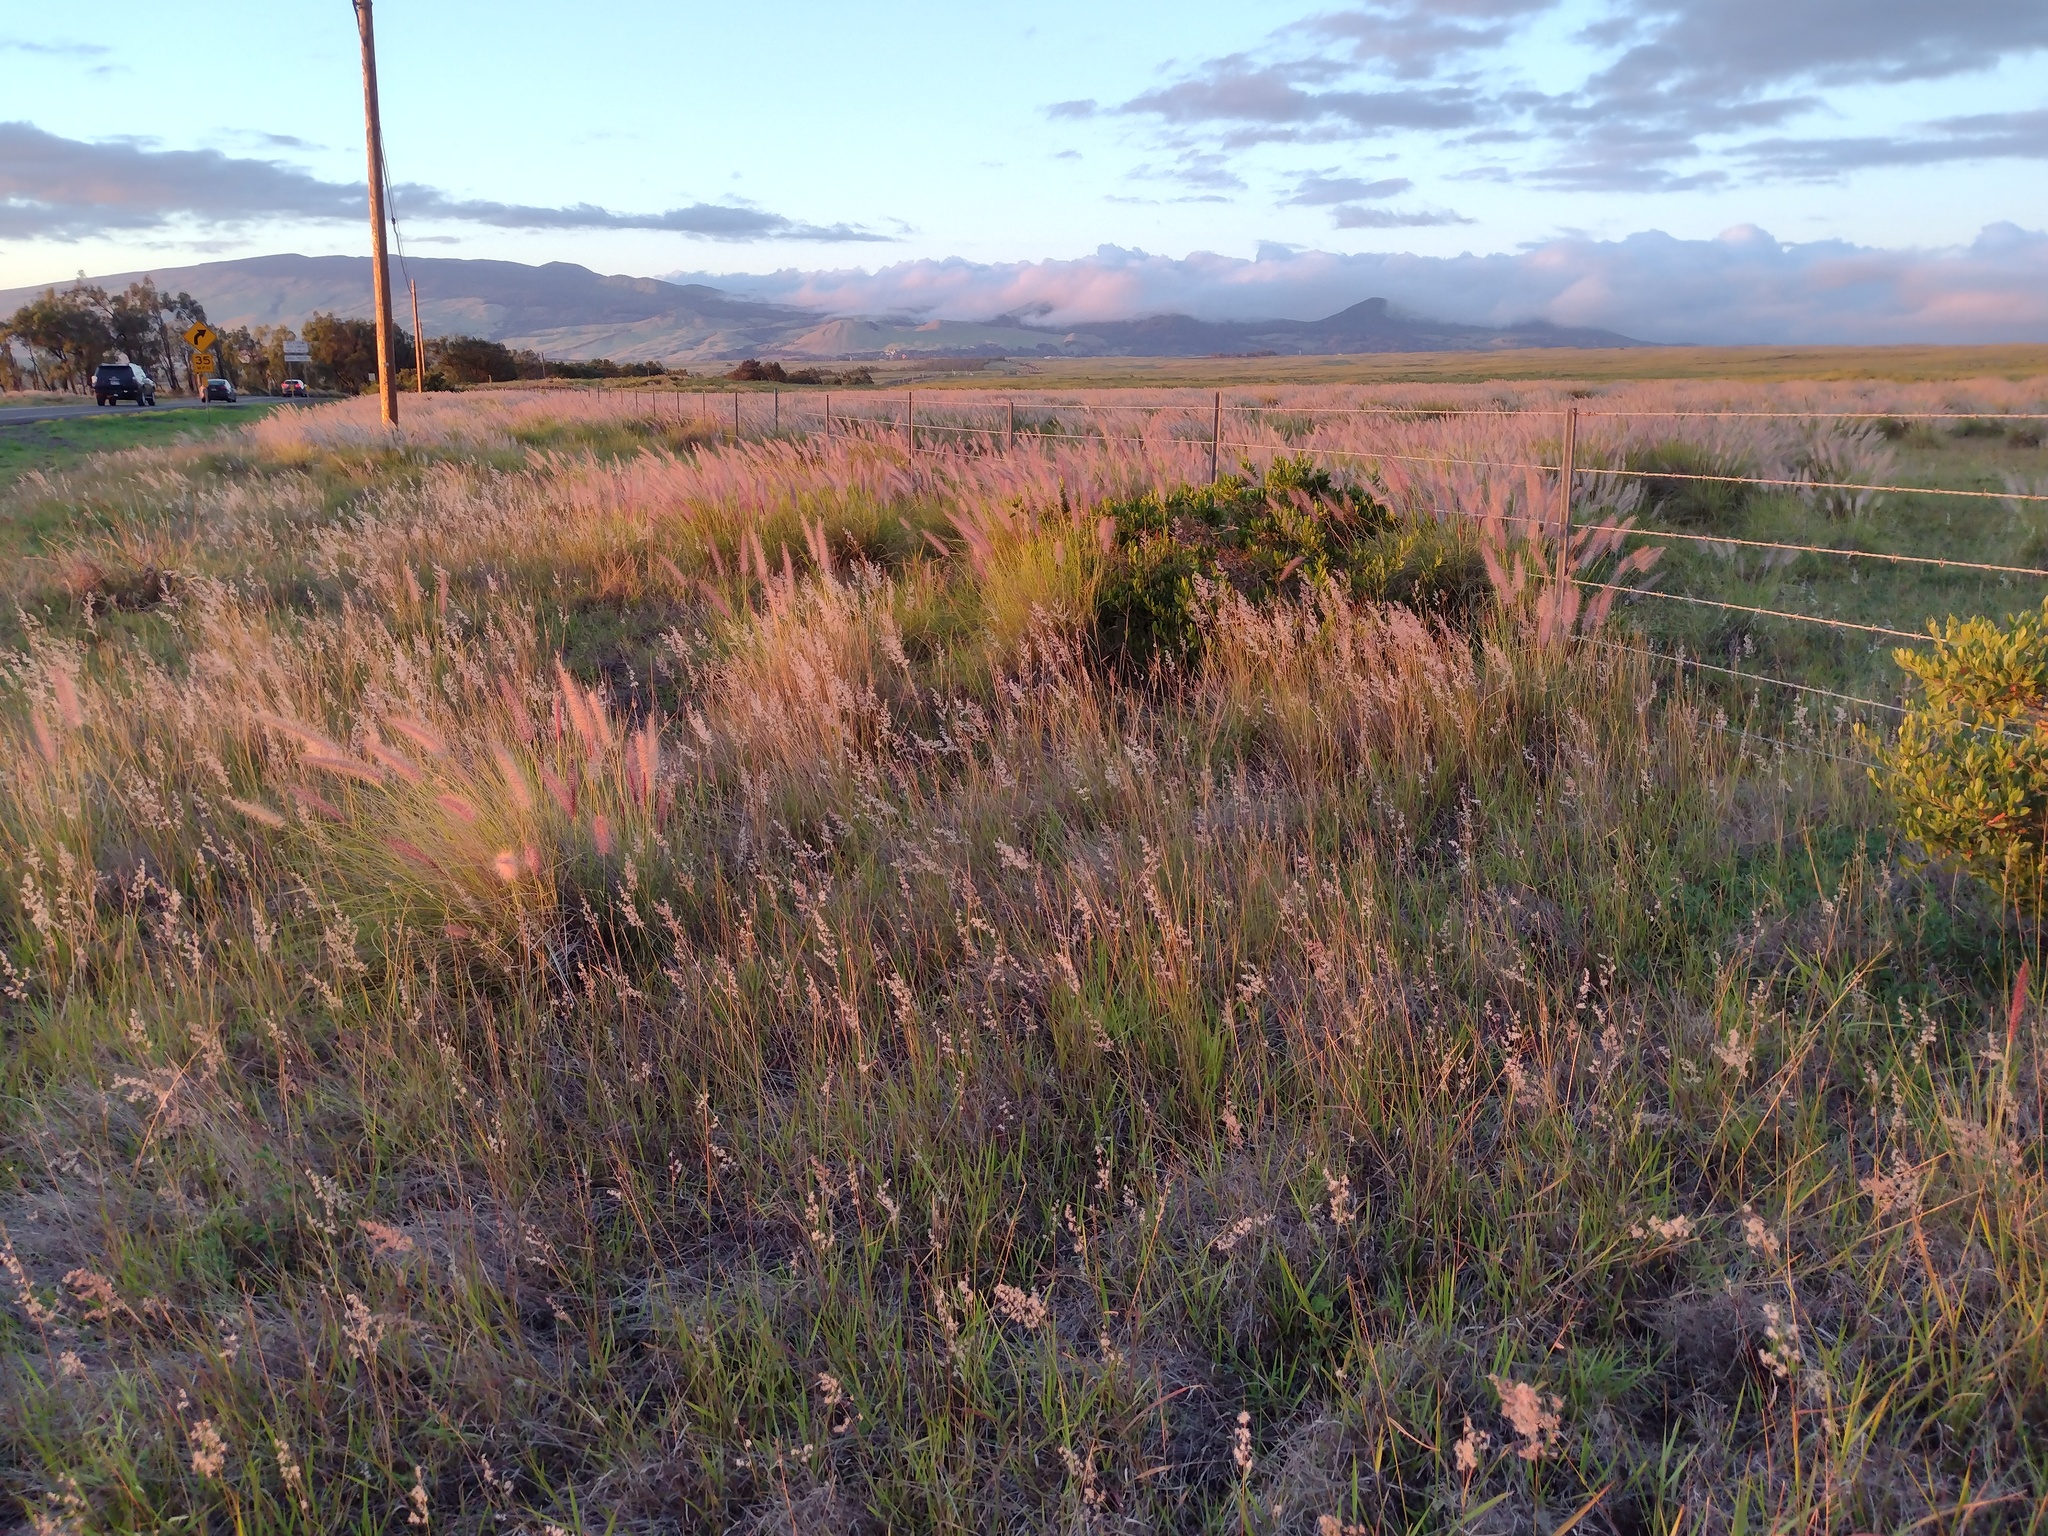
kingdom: Plantae
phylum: Tracheophyta
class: Liliopsida
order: Poales
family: Poaceae
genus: Melinis
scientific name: Melinis repens
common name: Rose natal grass
